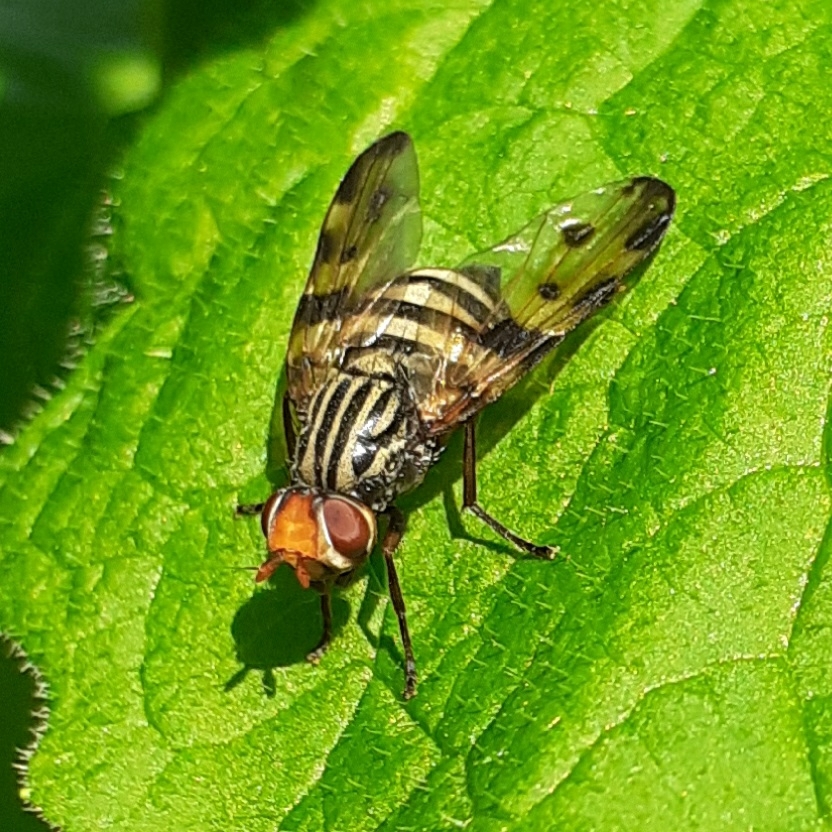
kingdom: Animalia
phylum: Arthropoda
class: Insecta
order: Diptera
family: Ulidiidae
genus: Otites
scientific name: Otites porcus
